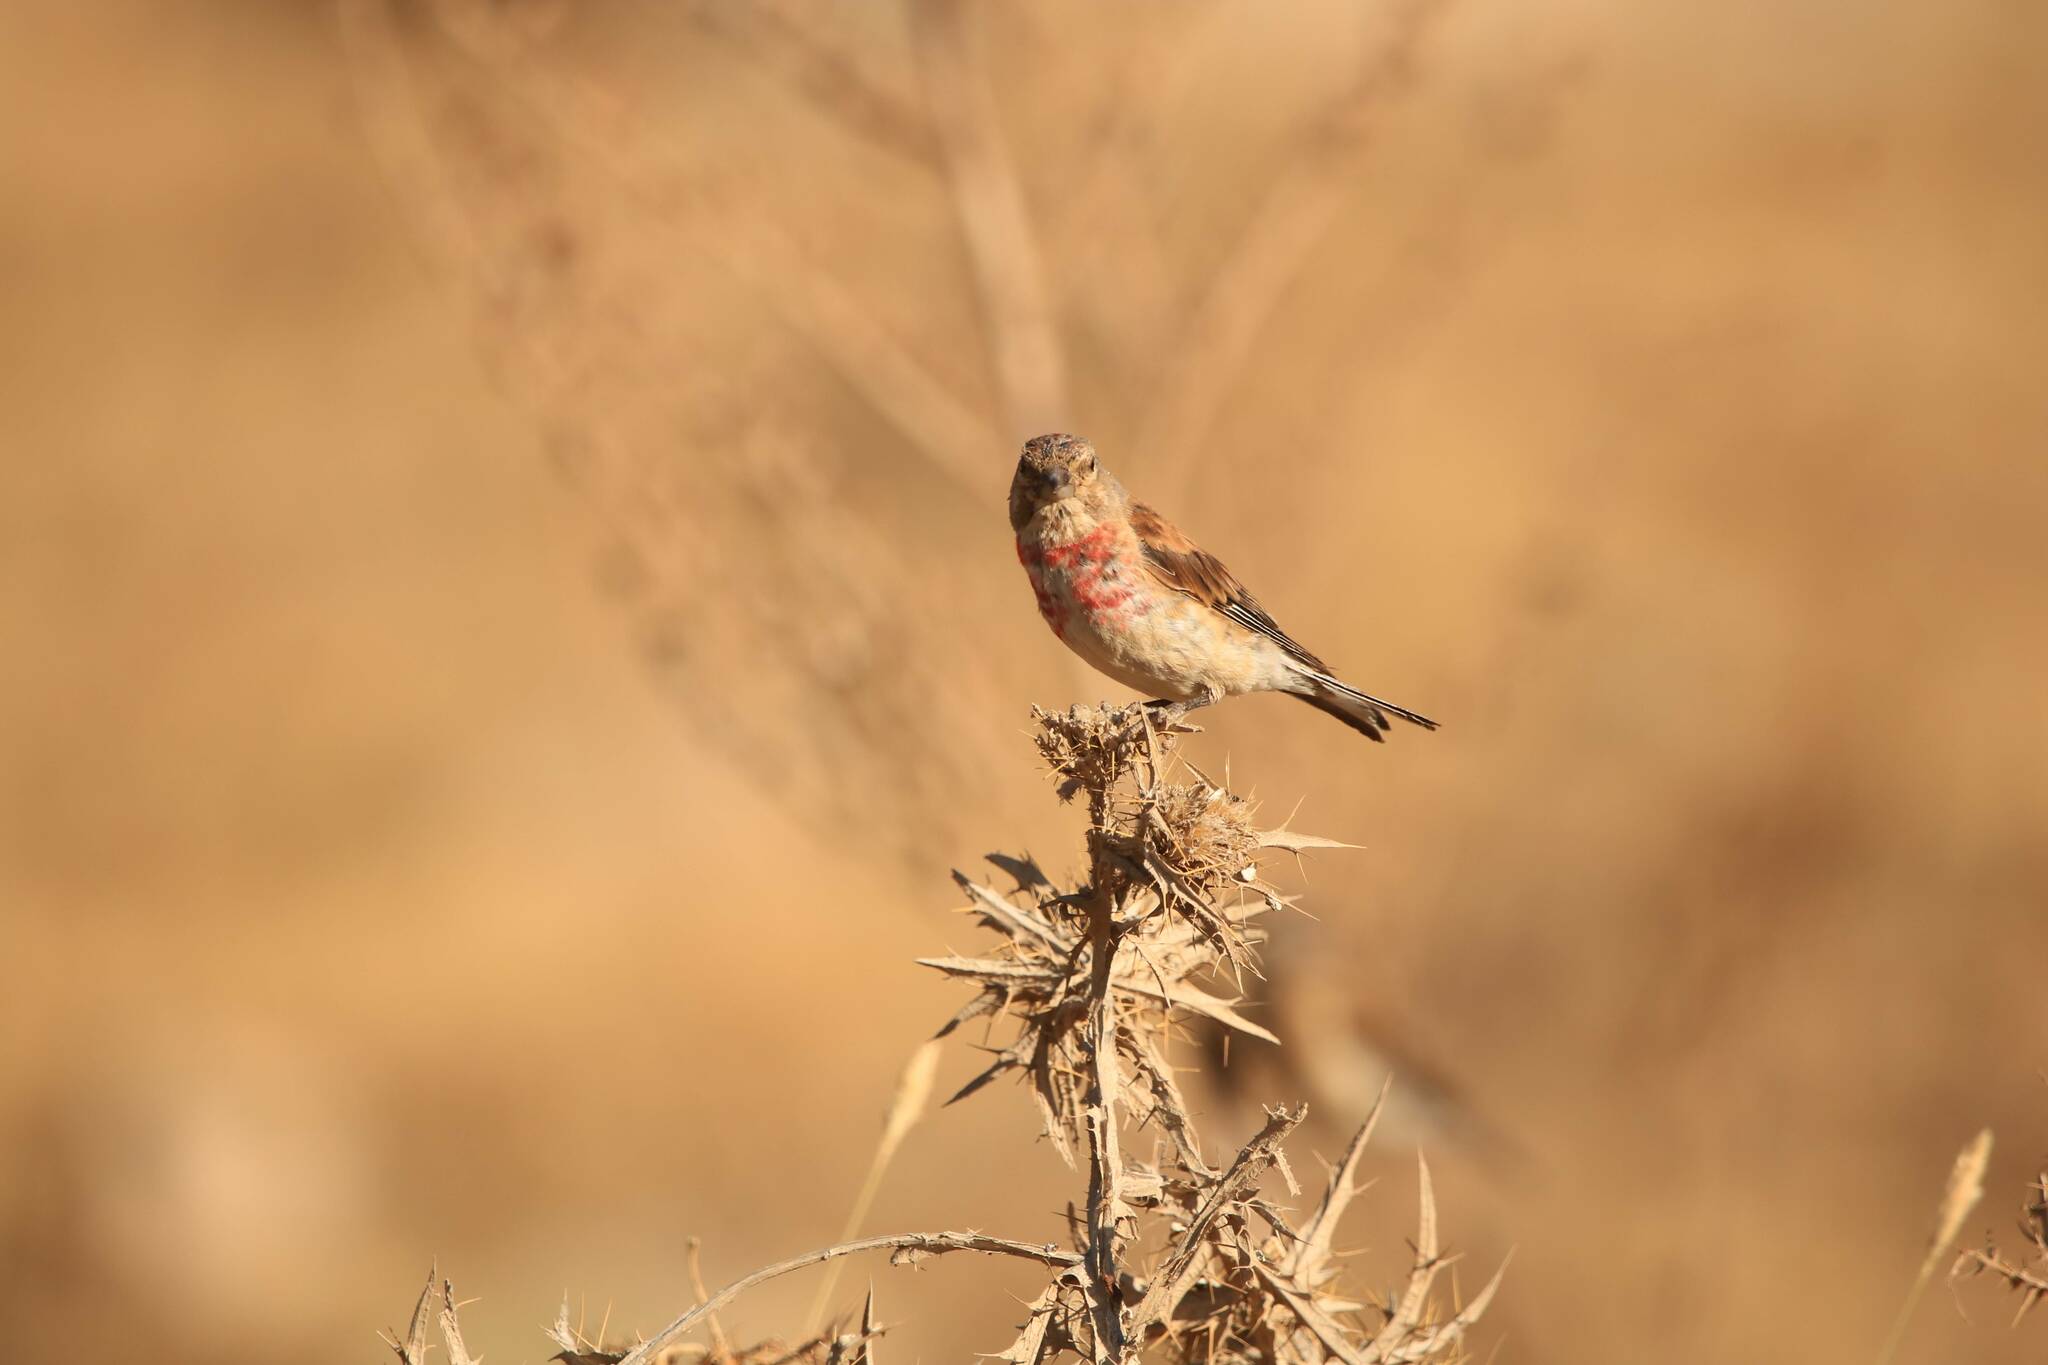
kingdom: Animalia
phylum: Chordata
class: Aves
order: Passeriformes
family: Fringillidae
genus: Linaria
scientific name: Linaria cannabina
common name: Common linnet
